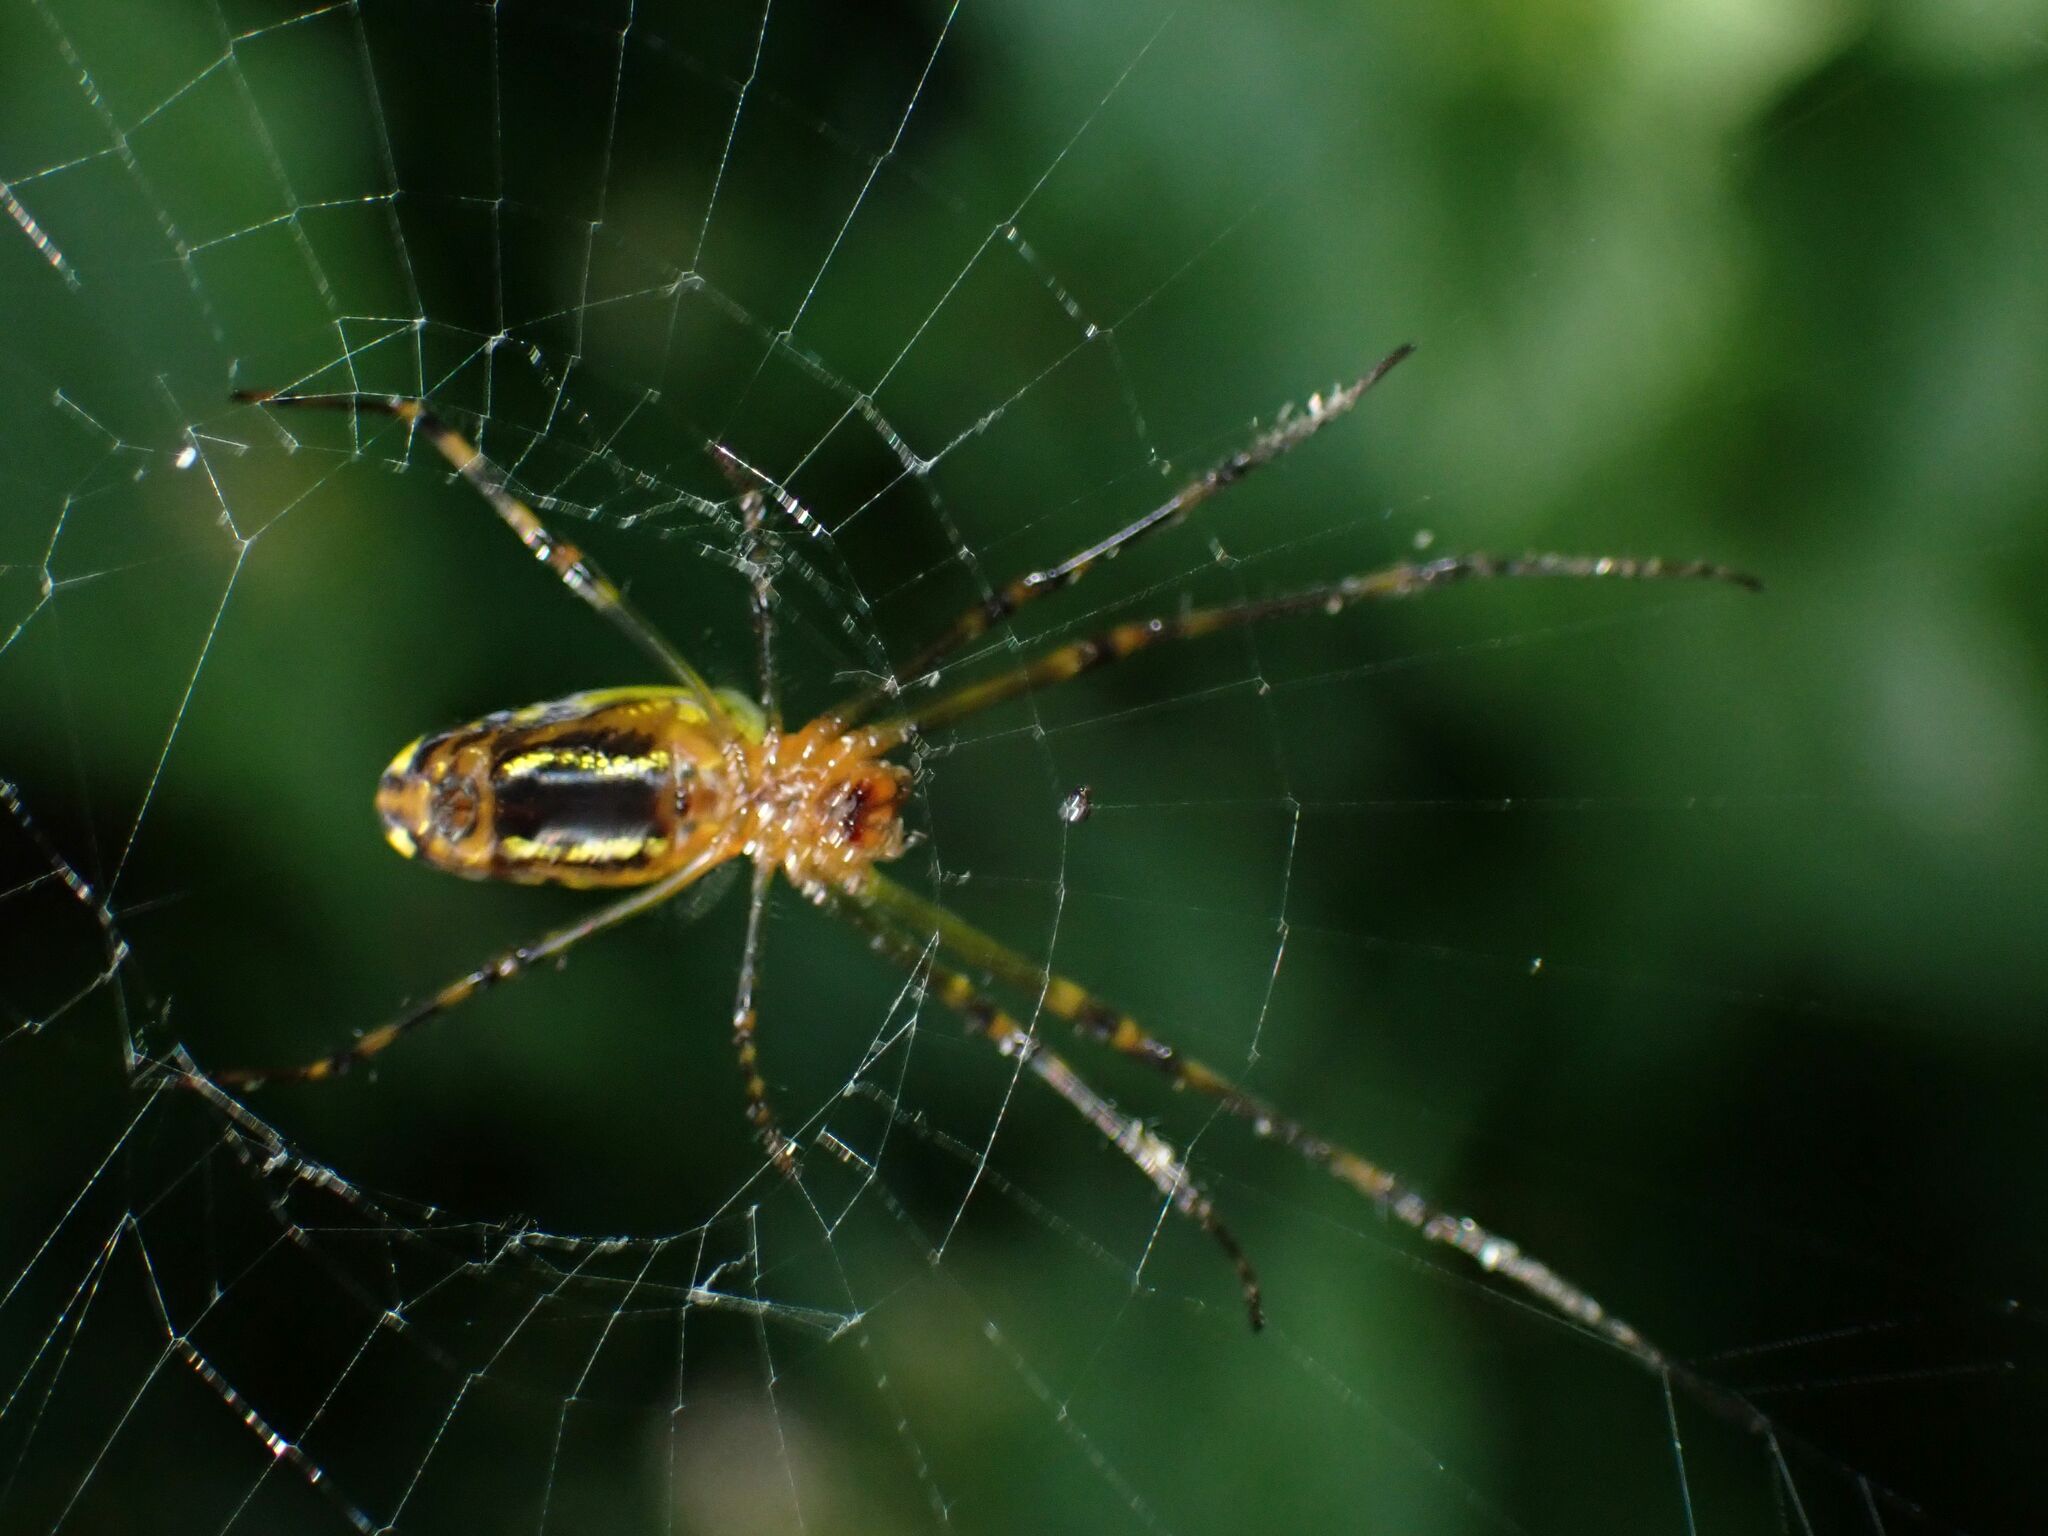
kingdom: Animalia
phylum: Arthropoda
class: Arachnida
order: Araneae
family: Tetragnathidae
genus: Leucauge
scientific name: Leucauge granulata
